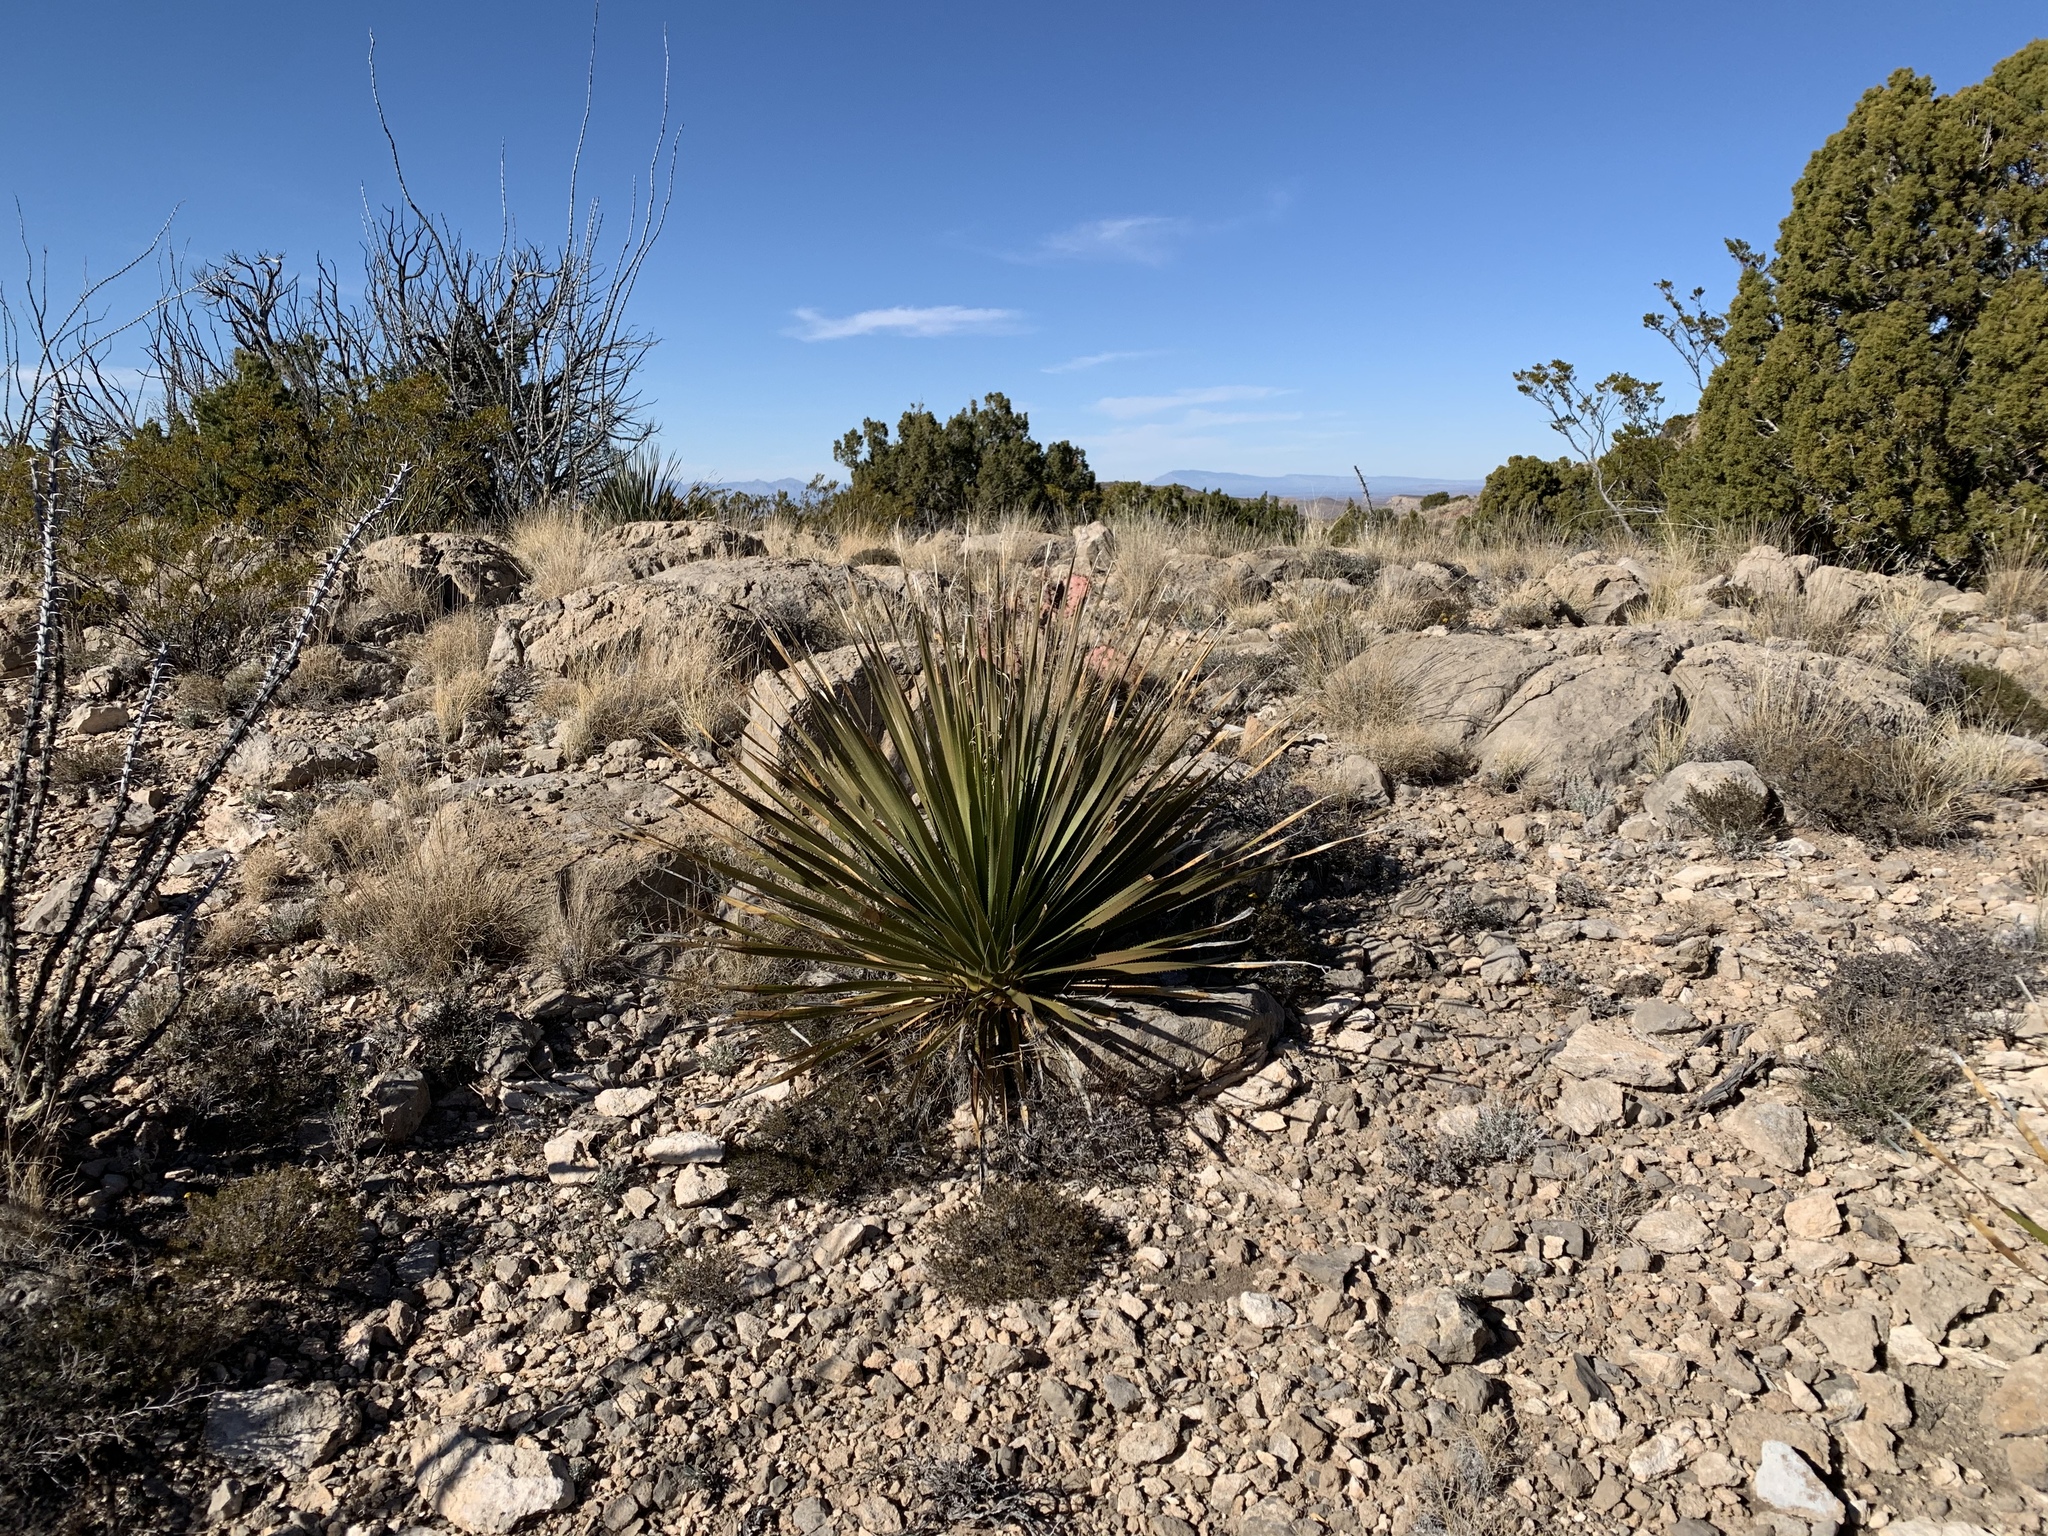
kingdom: Plantae
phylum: Tracheophyta
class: Liliopsida
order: Asparagales
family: Asparagaceae
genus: Dasylirion
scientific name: Dasylirion wheeleri
